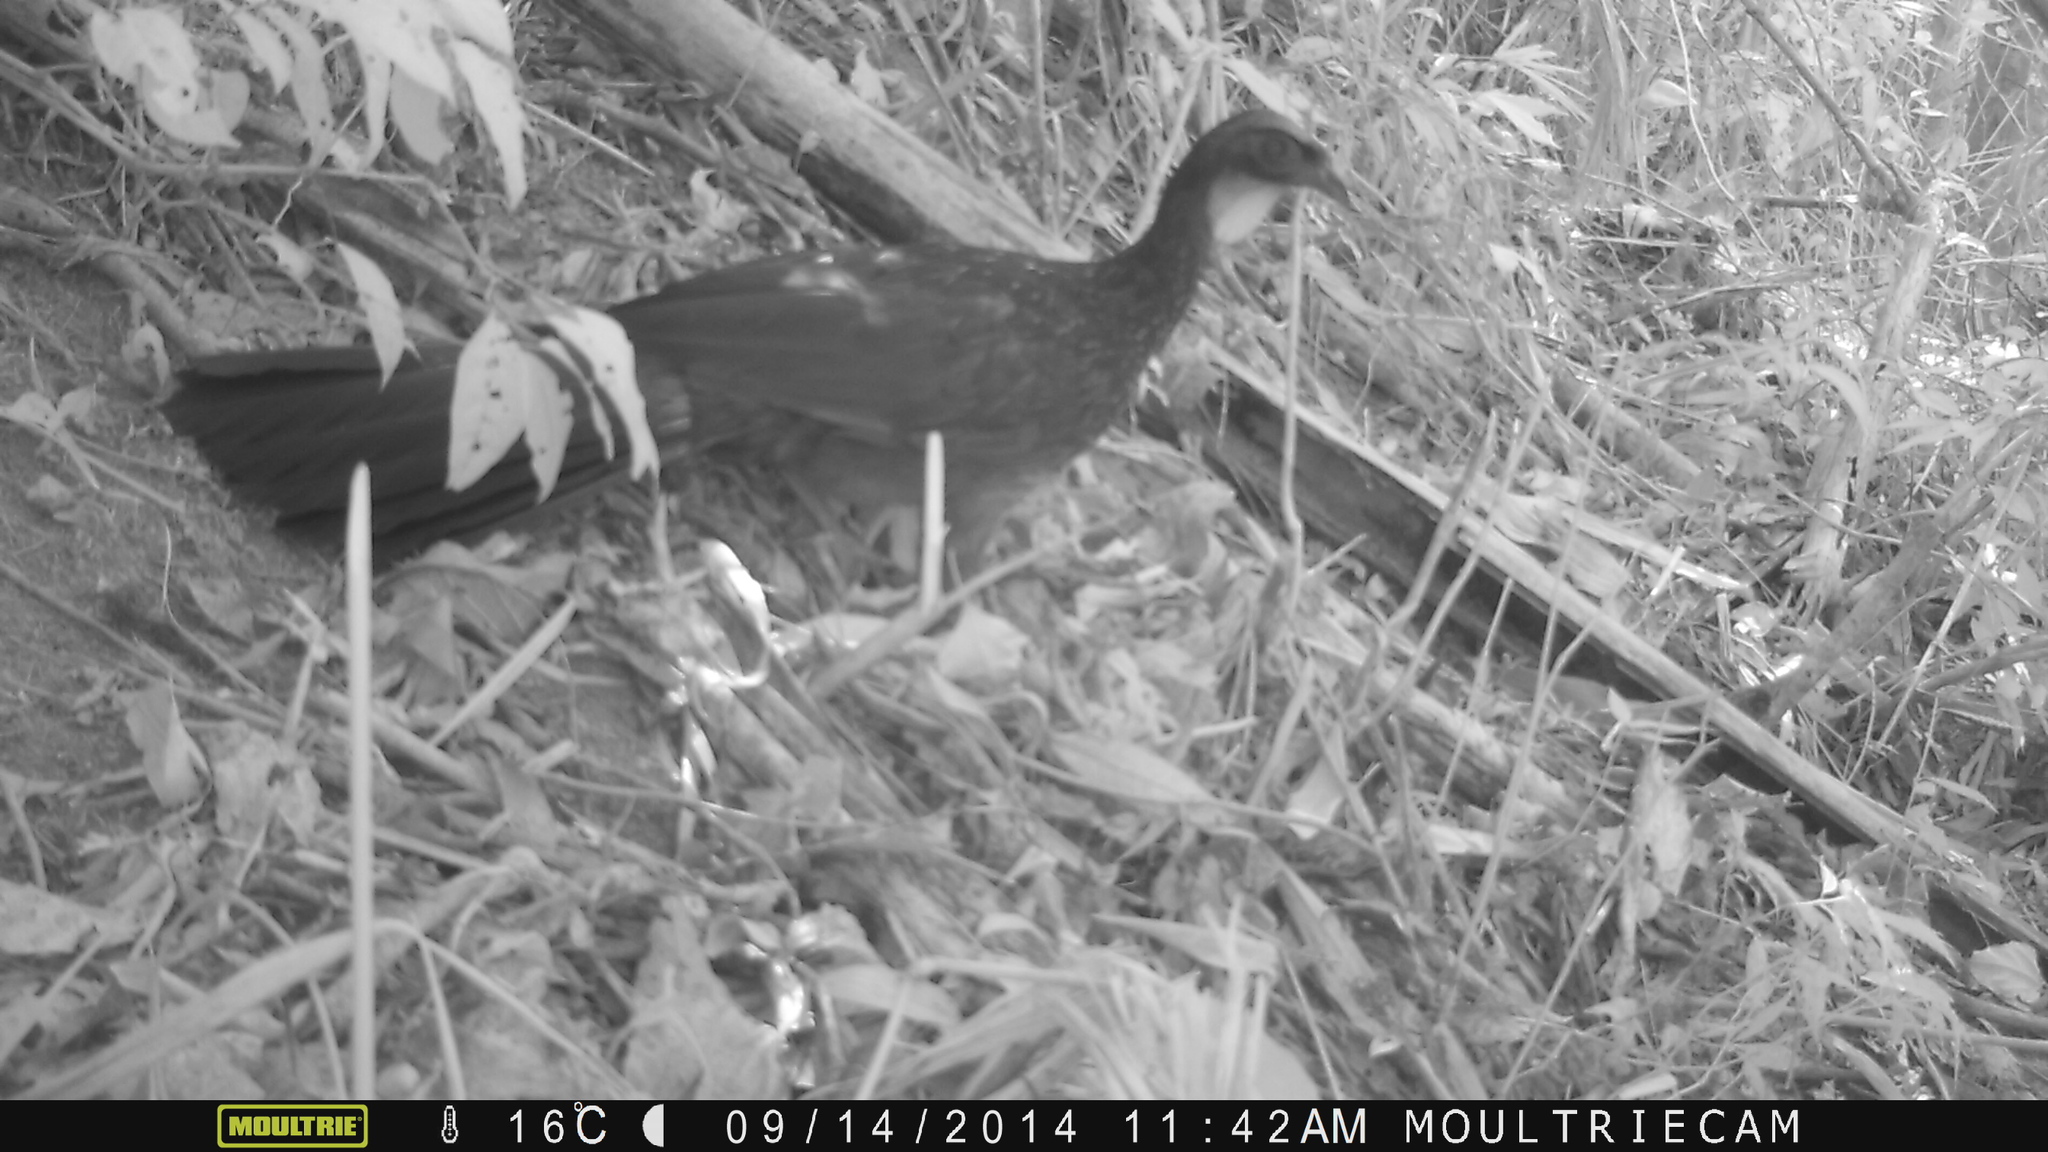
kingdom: Animalia
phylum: Chordata
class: Aves
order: Galliformes
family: Cracidae
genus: Penelope
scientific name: Penelope obscura
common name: Dusky-legged guan
